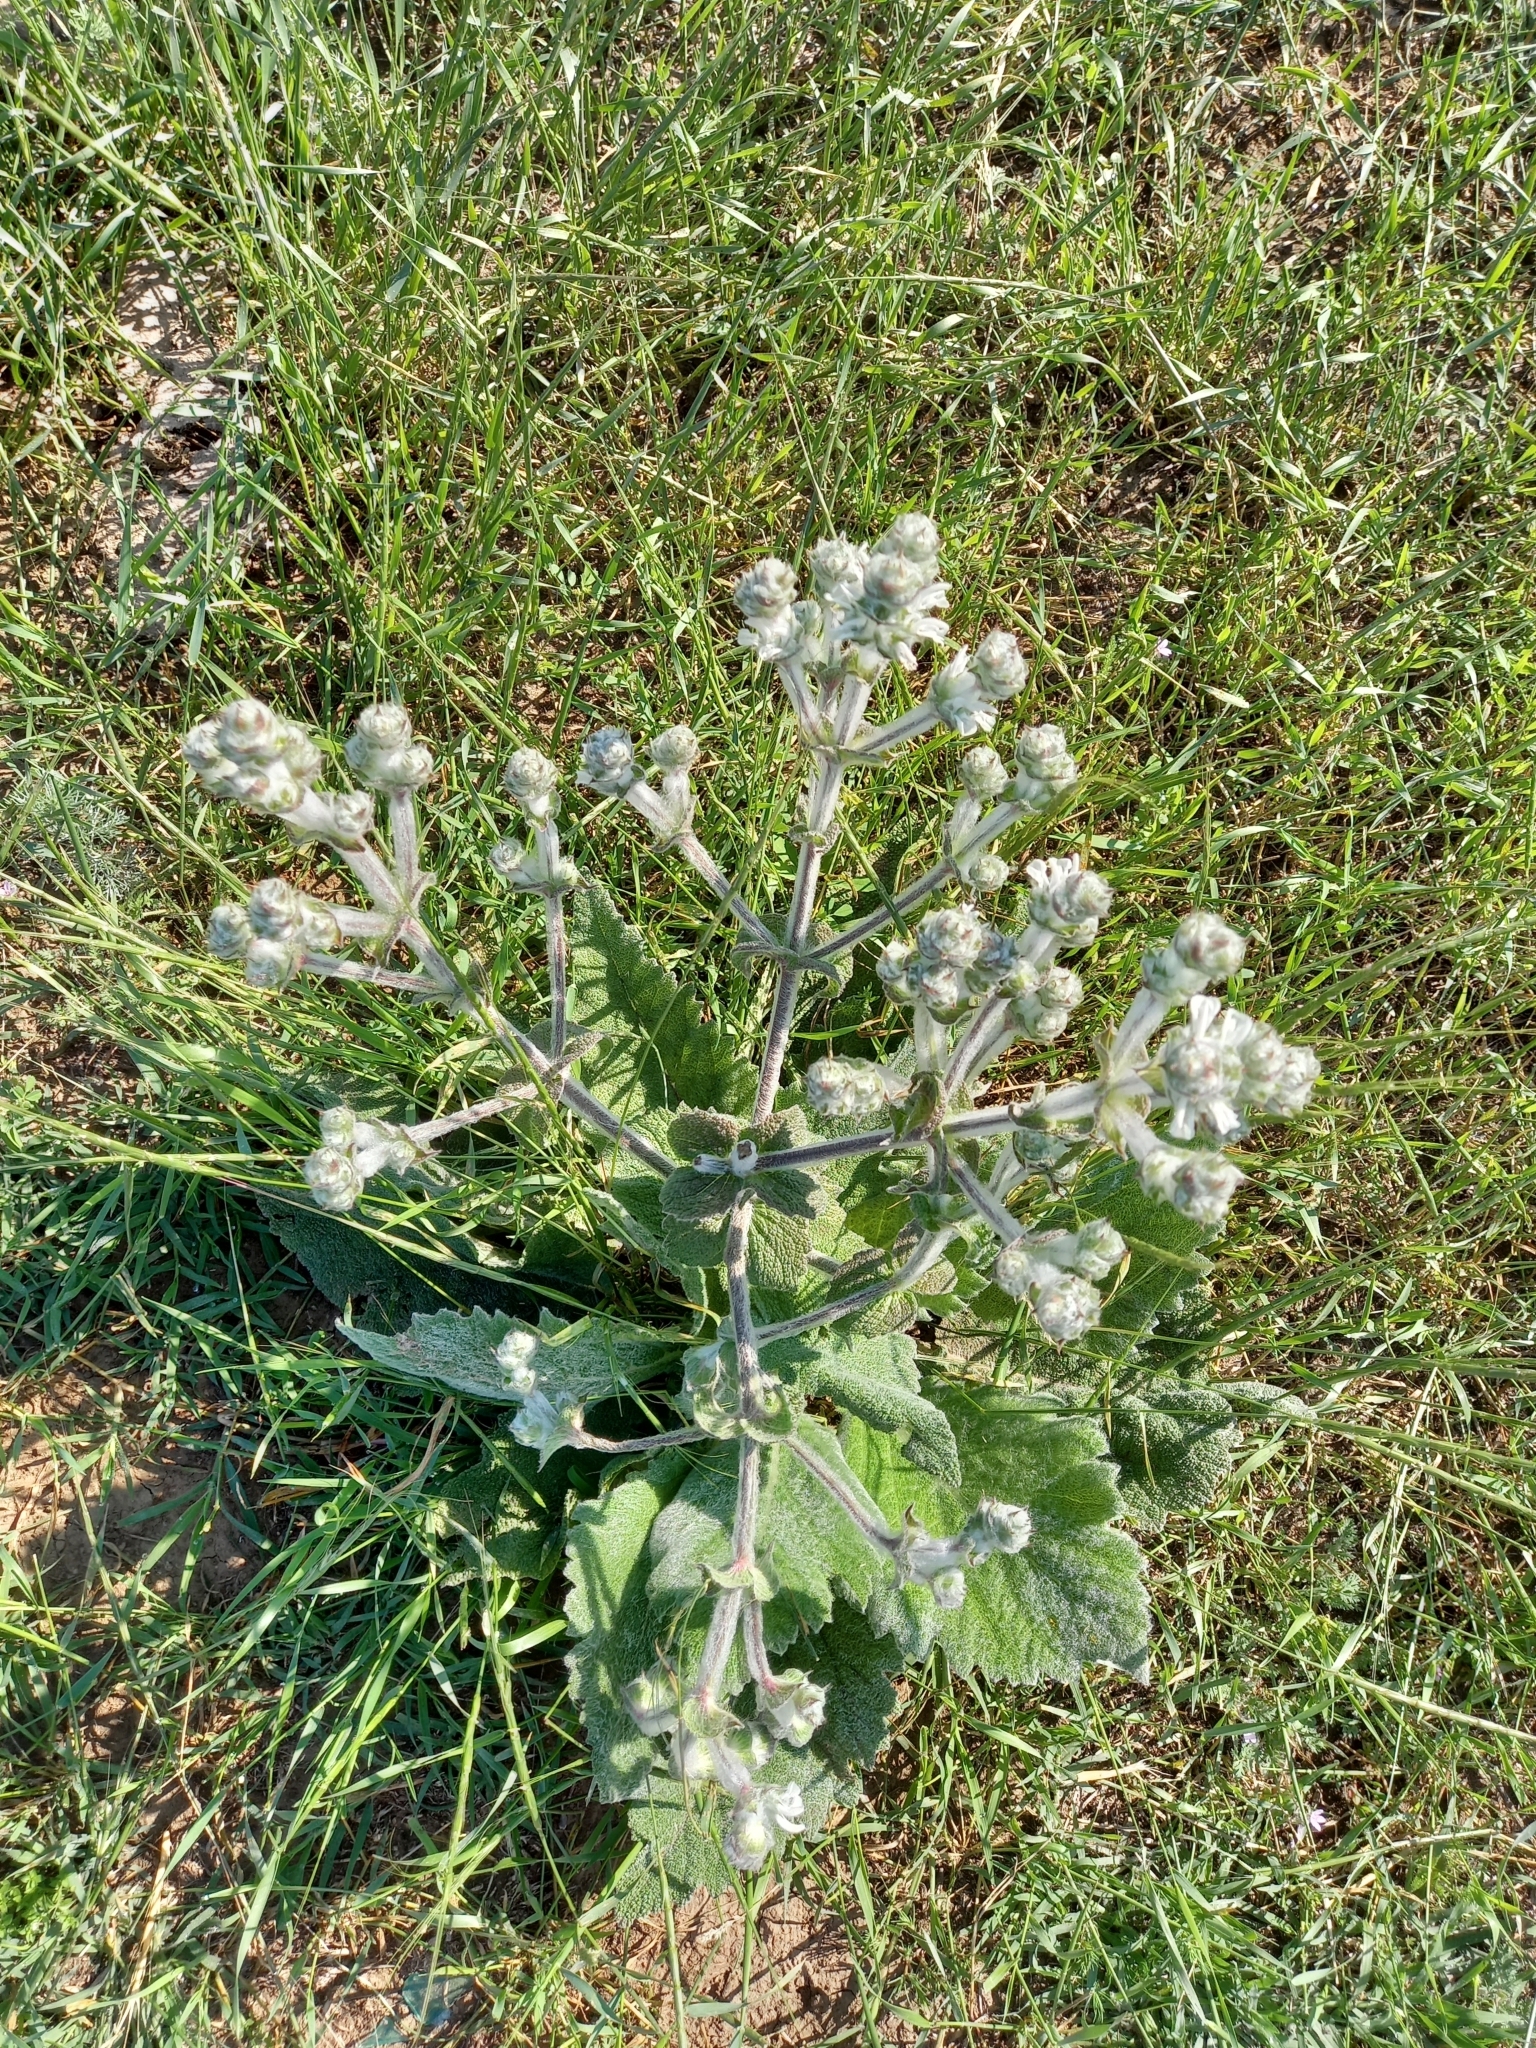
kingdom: Plantae
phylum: Tracheophyta
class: Magnoliopsida
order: Lamiales
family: Lamiaceae
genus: Salvia
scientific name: Salvia aethiopis
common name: Mediterranean sage
